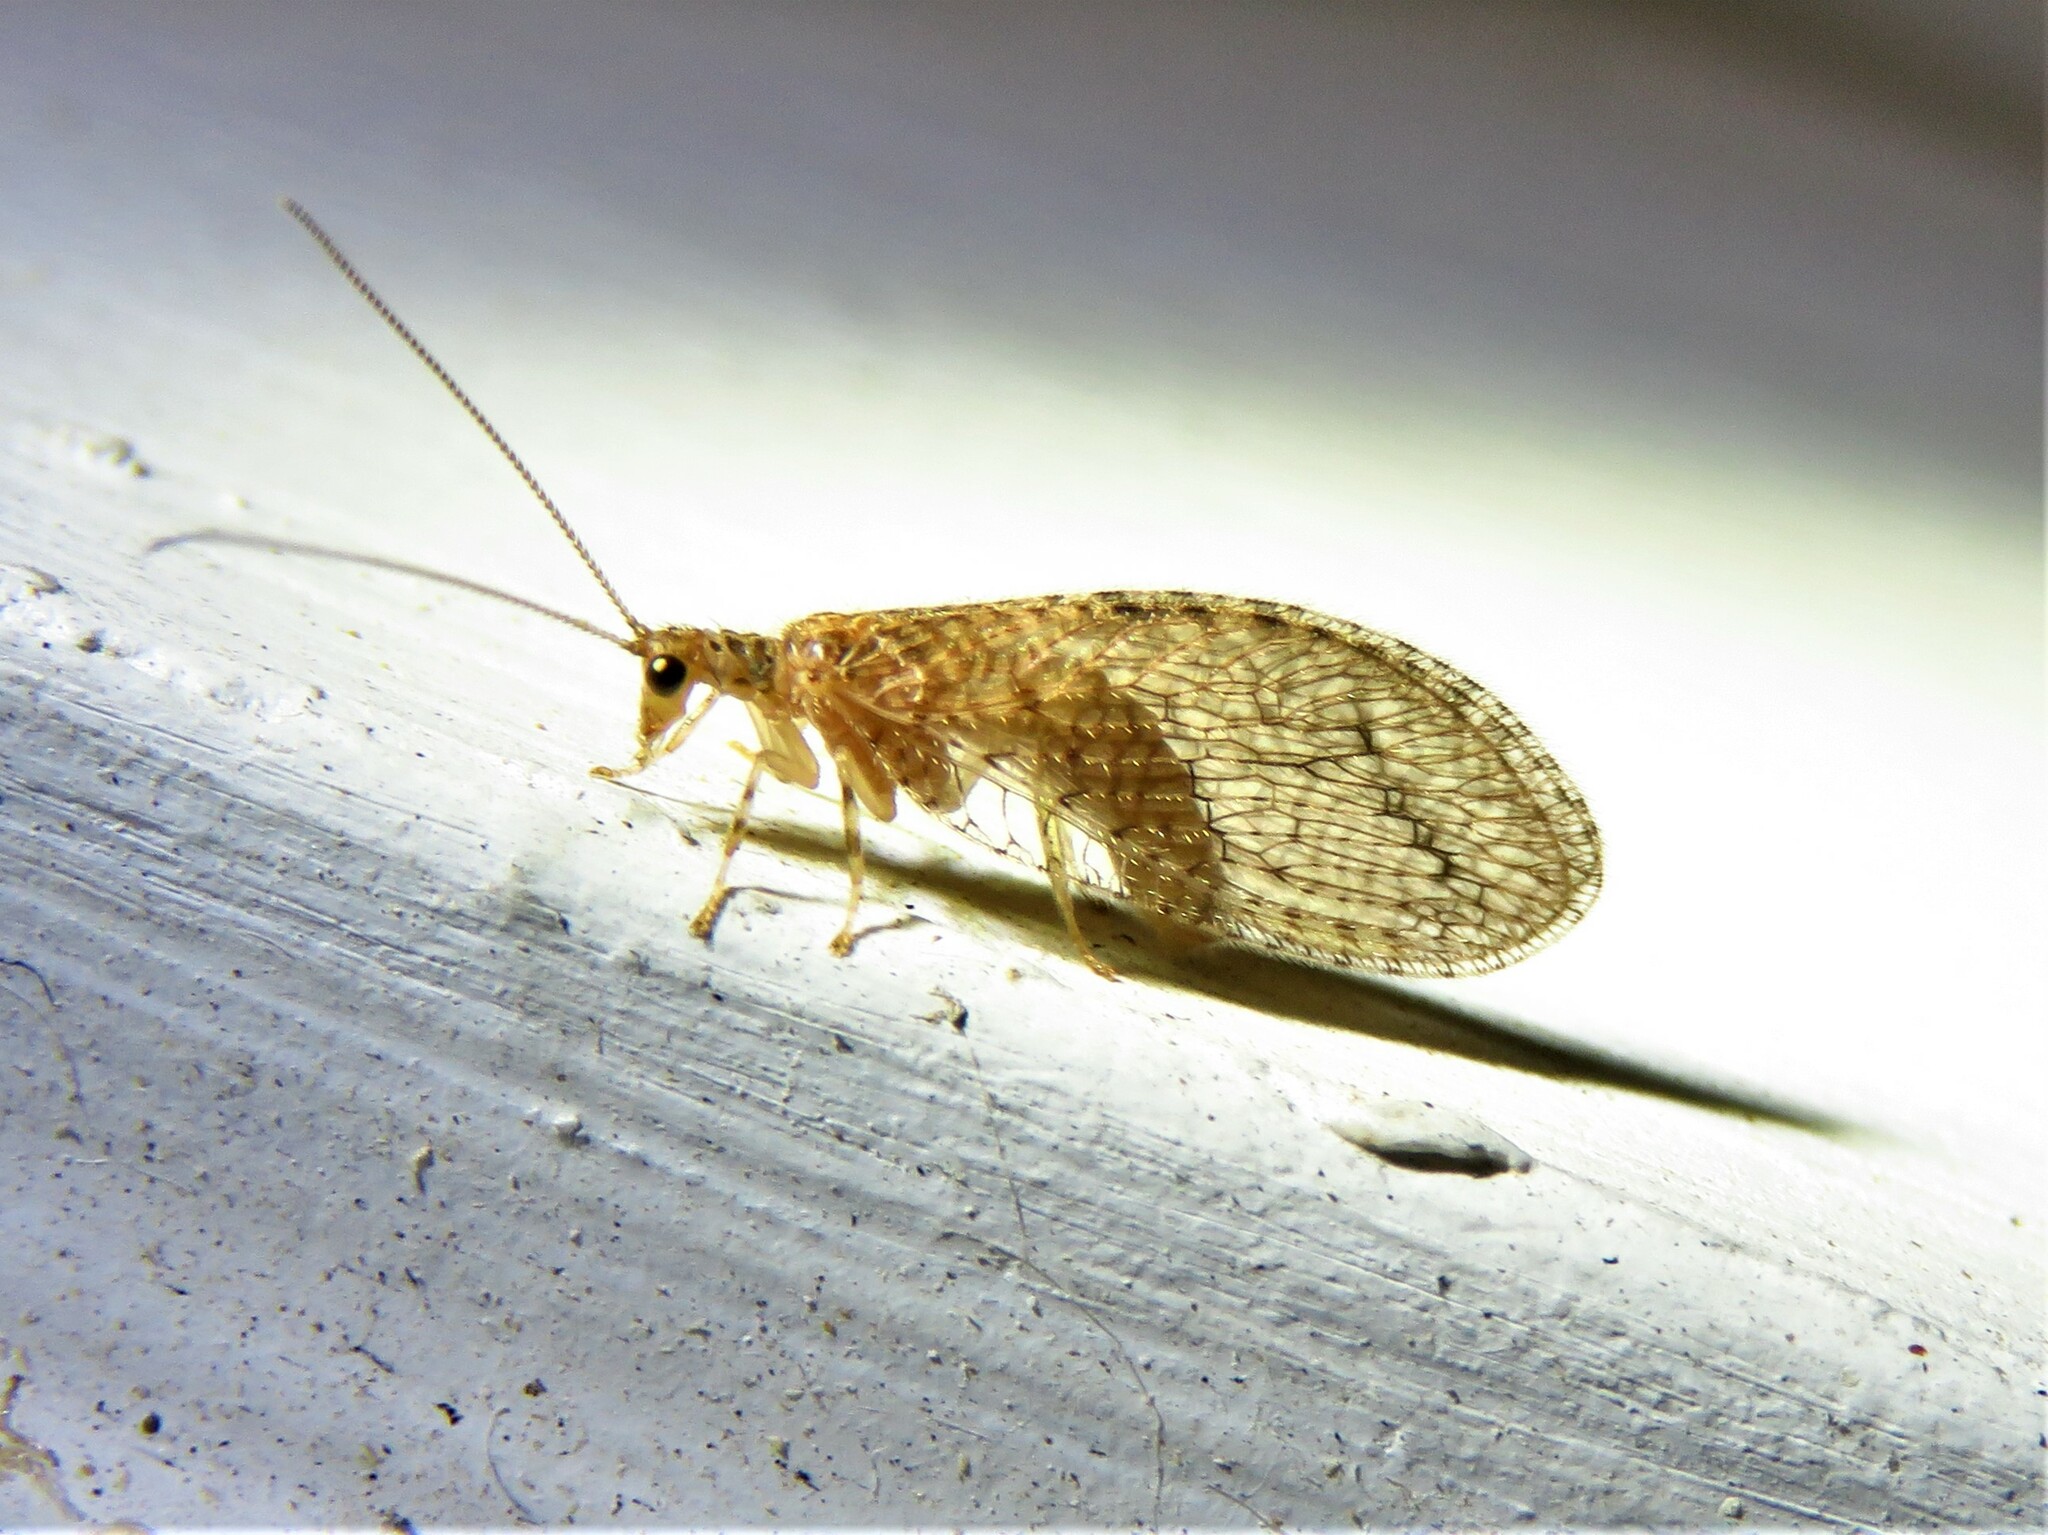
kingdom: Animalia
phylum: Arthropoda
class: Insecta
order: Neuroptera
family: Hemerobiidae
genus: Micromus
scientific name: Micromus posticus
